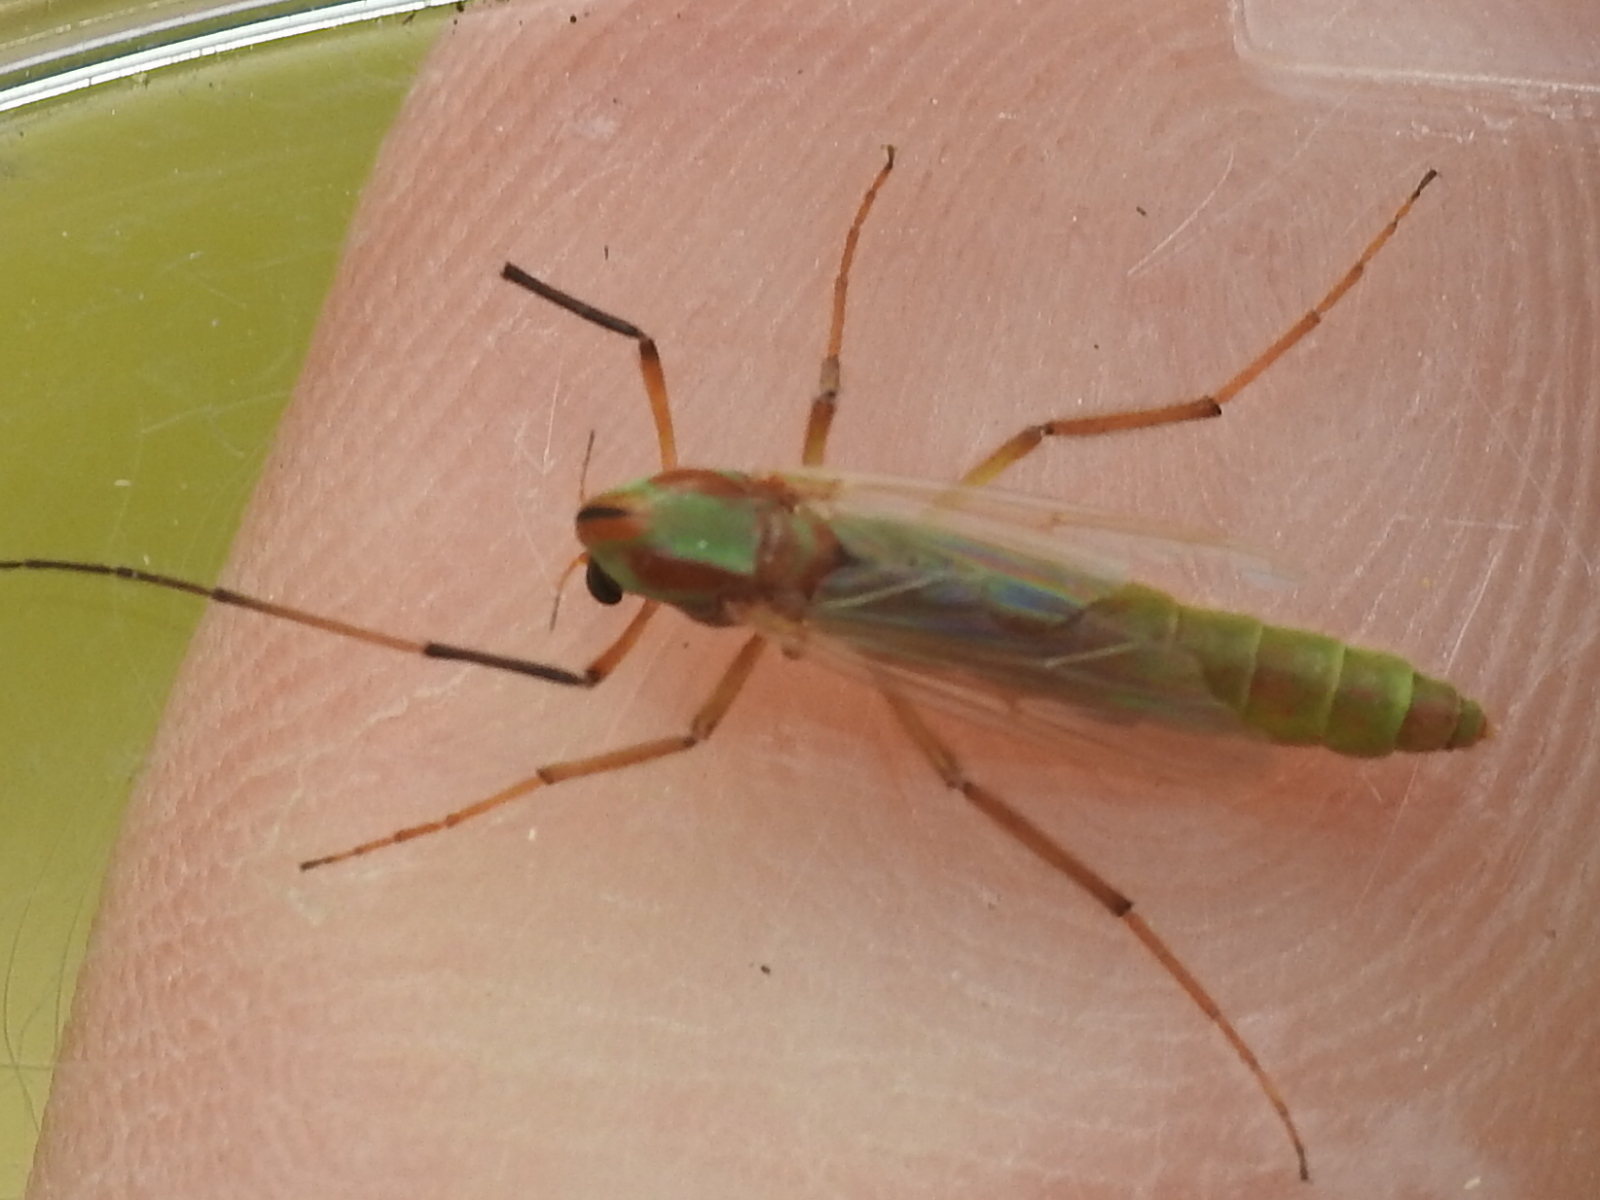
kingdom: Animalia
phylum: Arthropoda
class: Insecta
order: Diptera
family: Chironomidae
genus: Axarus
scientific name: Axarus
